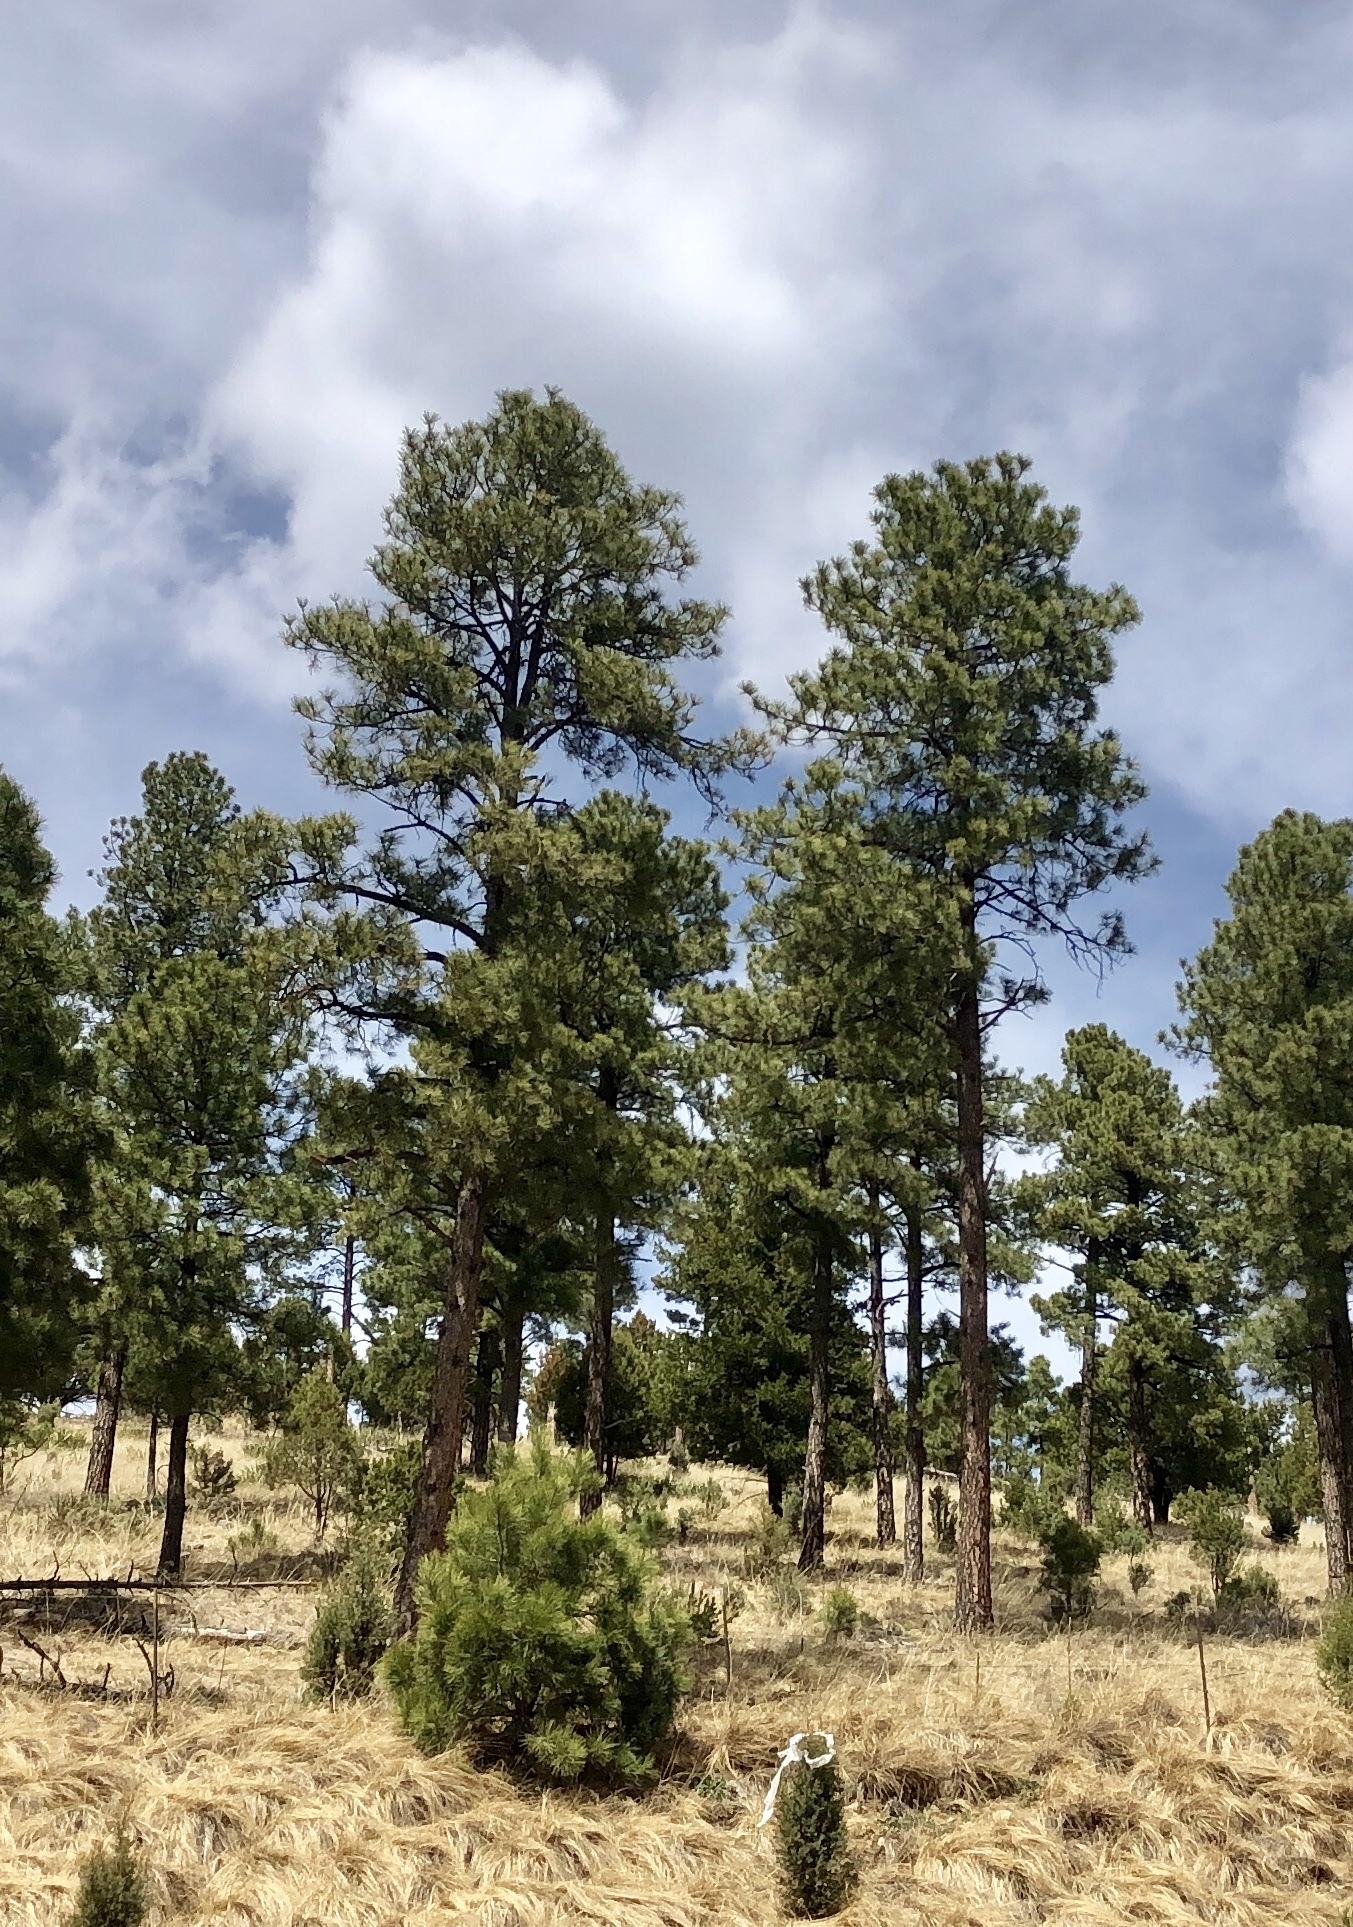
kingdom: Plantae
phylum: Tracheophyta
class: Pinopsida
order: Pinales
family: Pinaceae
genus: Pinus
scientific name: Pinus ponderosa
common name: Western yellow-pine
